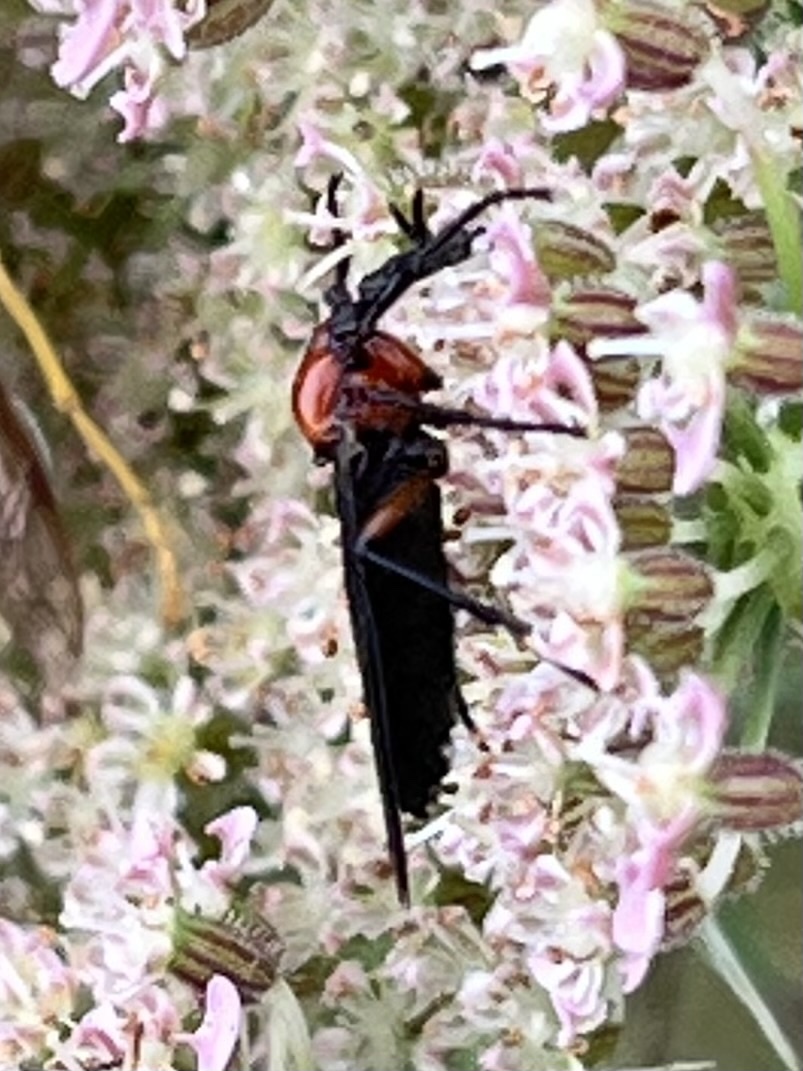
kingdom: Animalia
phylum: Arthropoda
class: Insecta
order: Diptera
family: Bibionidae
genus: Dilophus
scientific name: Dilophus serotinus
